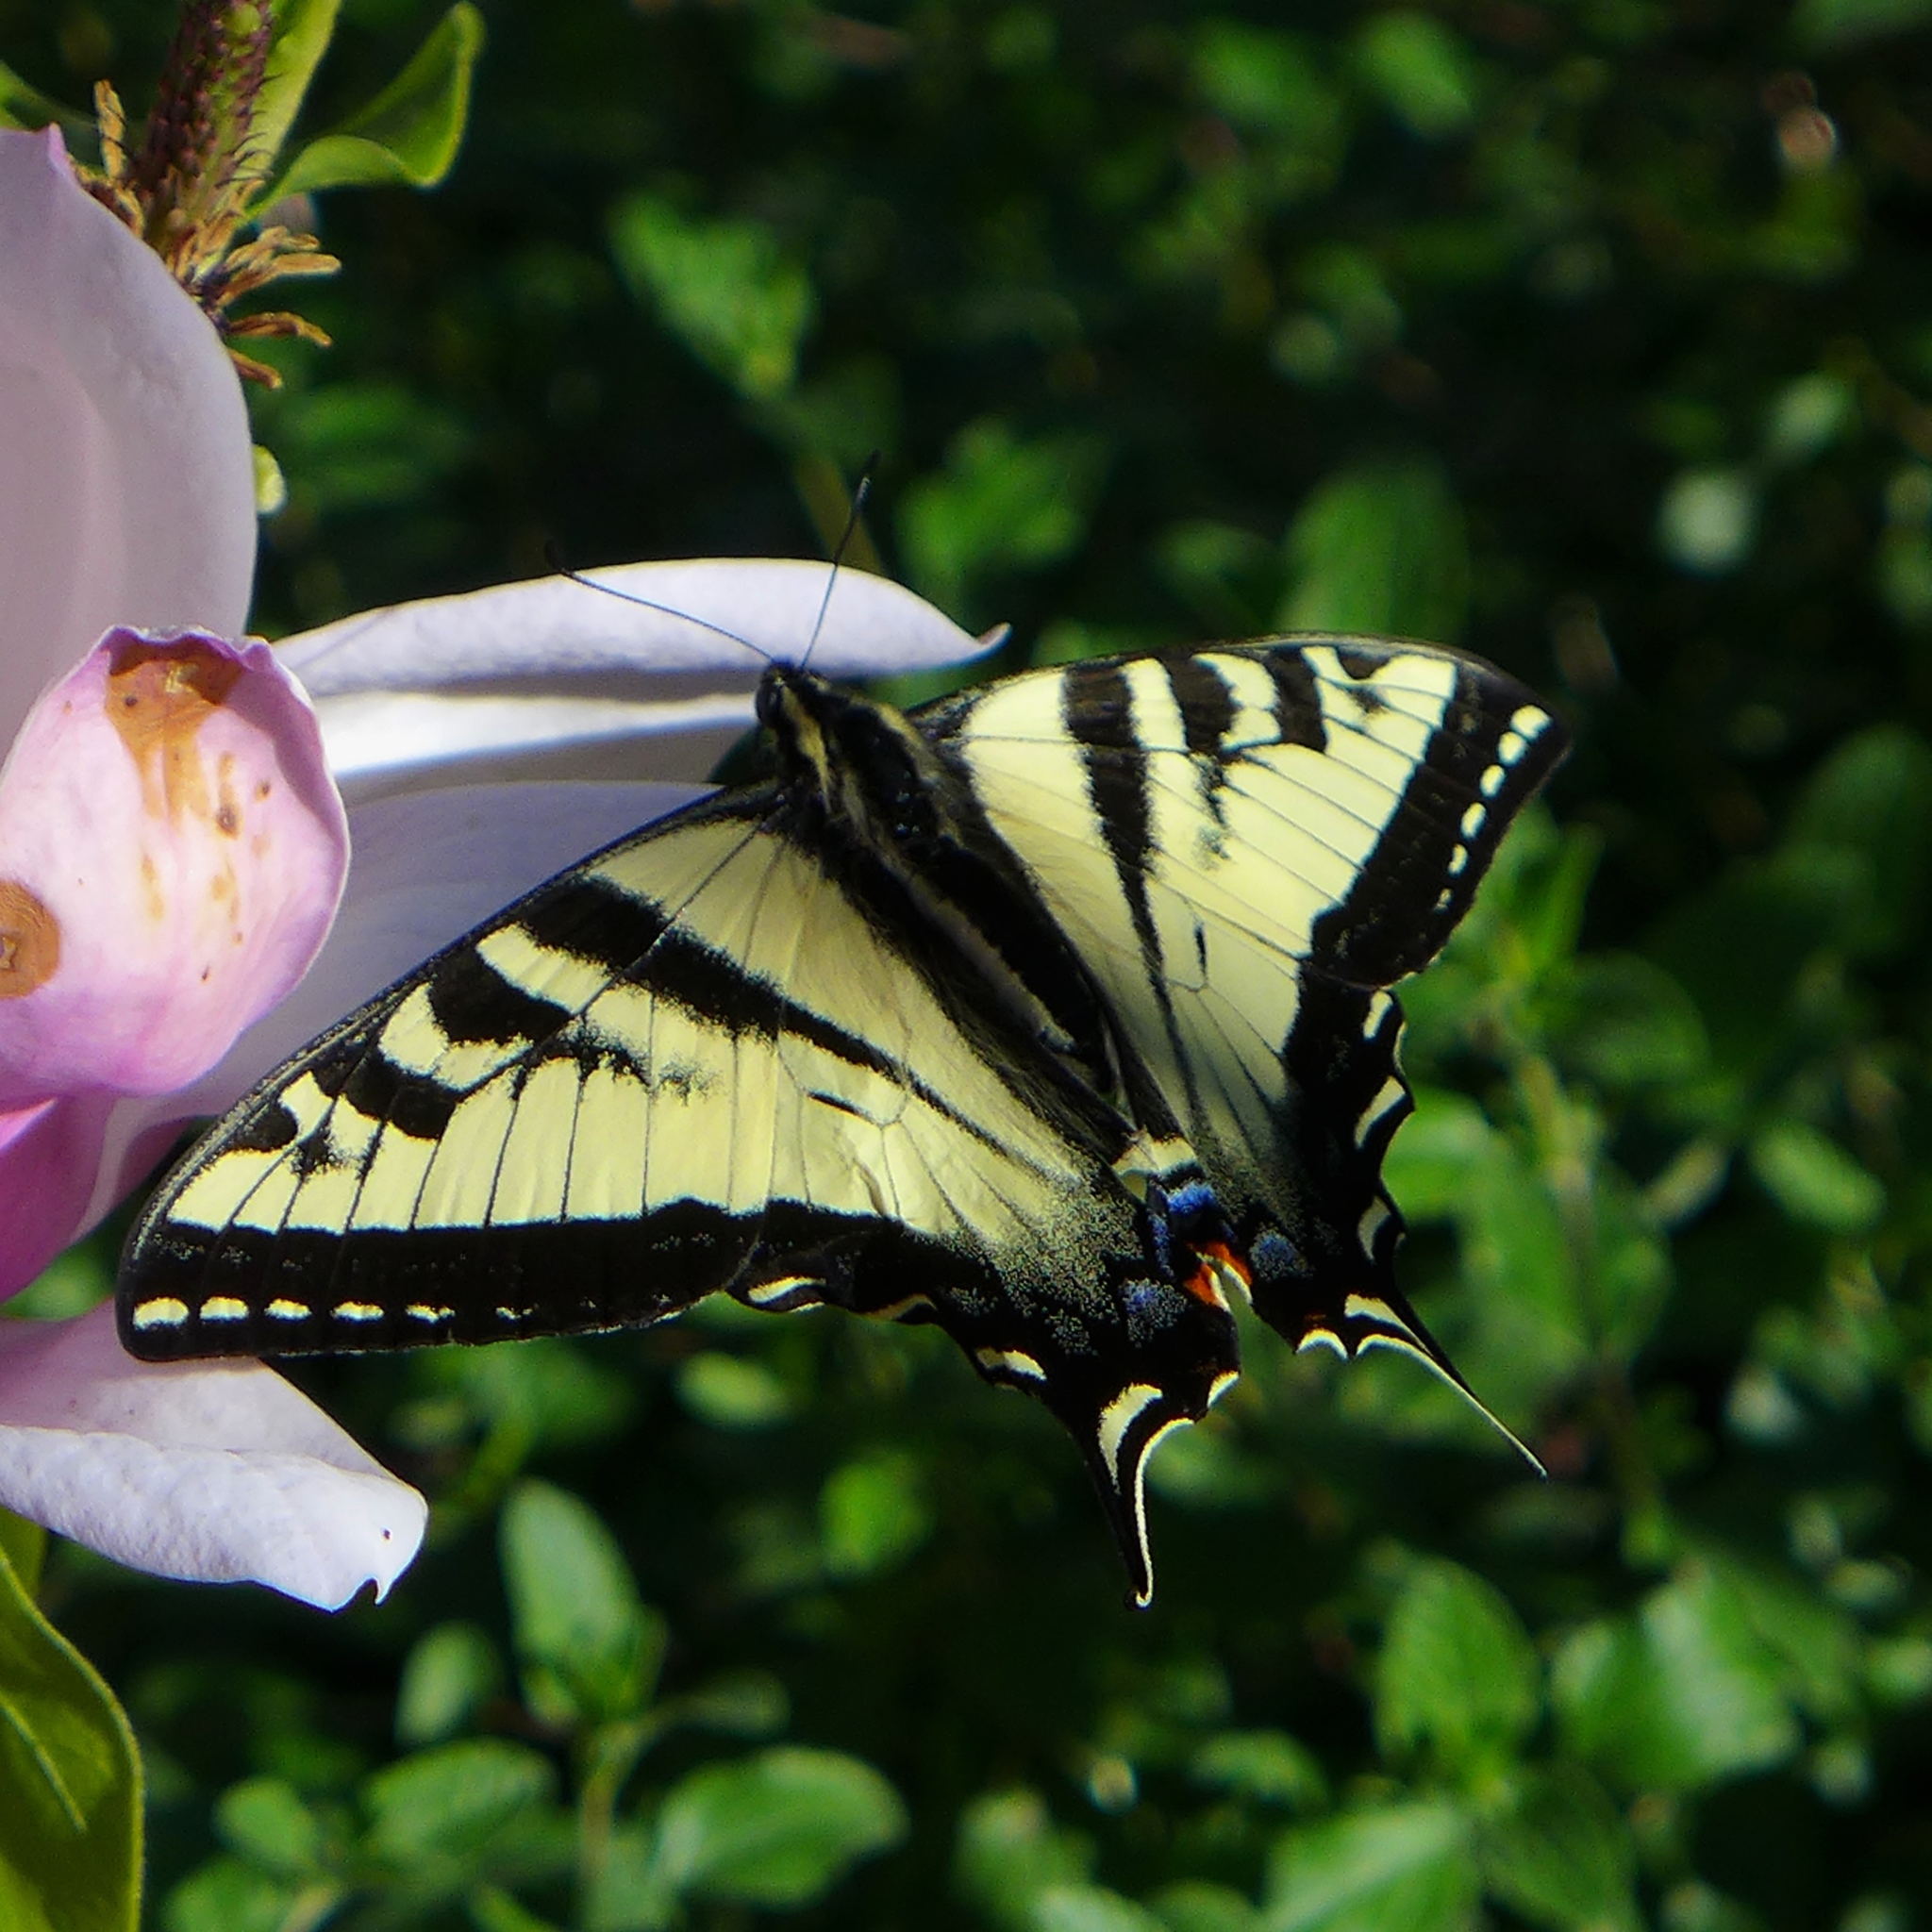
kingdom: Animalia
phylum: Arthropoda
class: Insecta
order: Lepidoptera
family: Papilionidae
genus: Papilio
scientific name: Papilio rutulus
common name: Western tiger swallowtail
